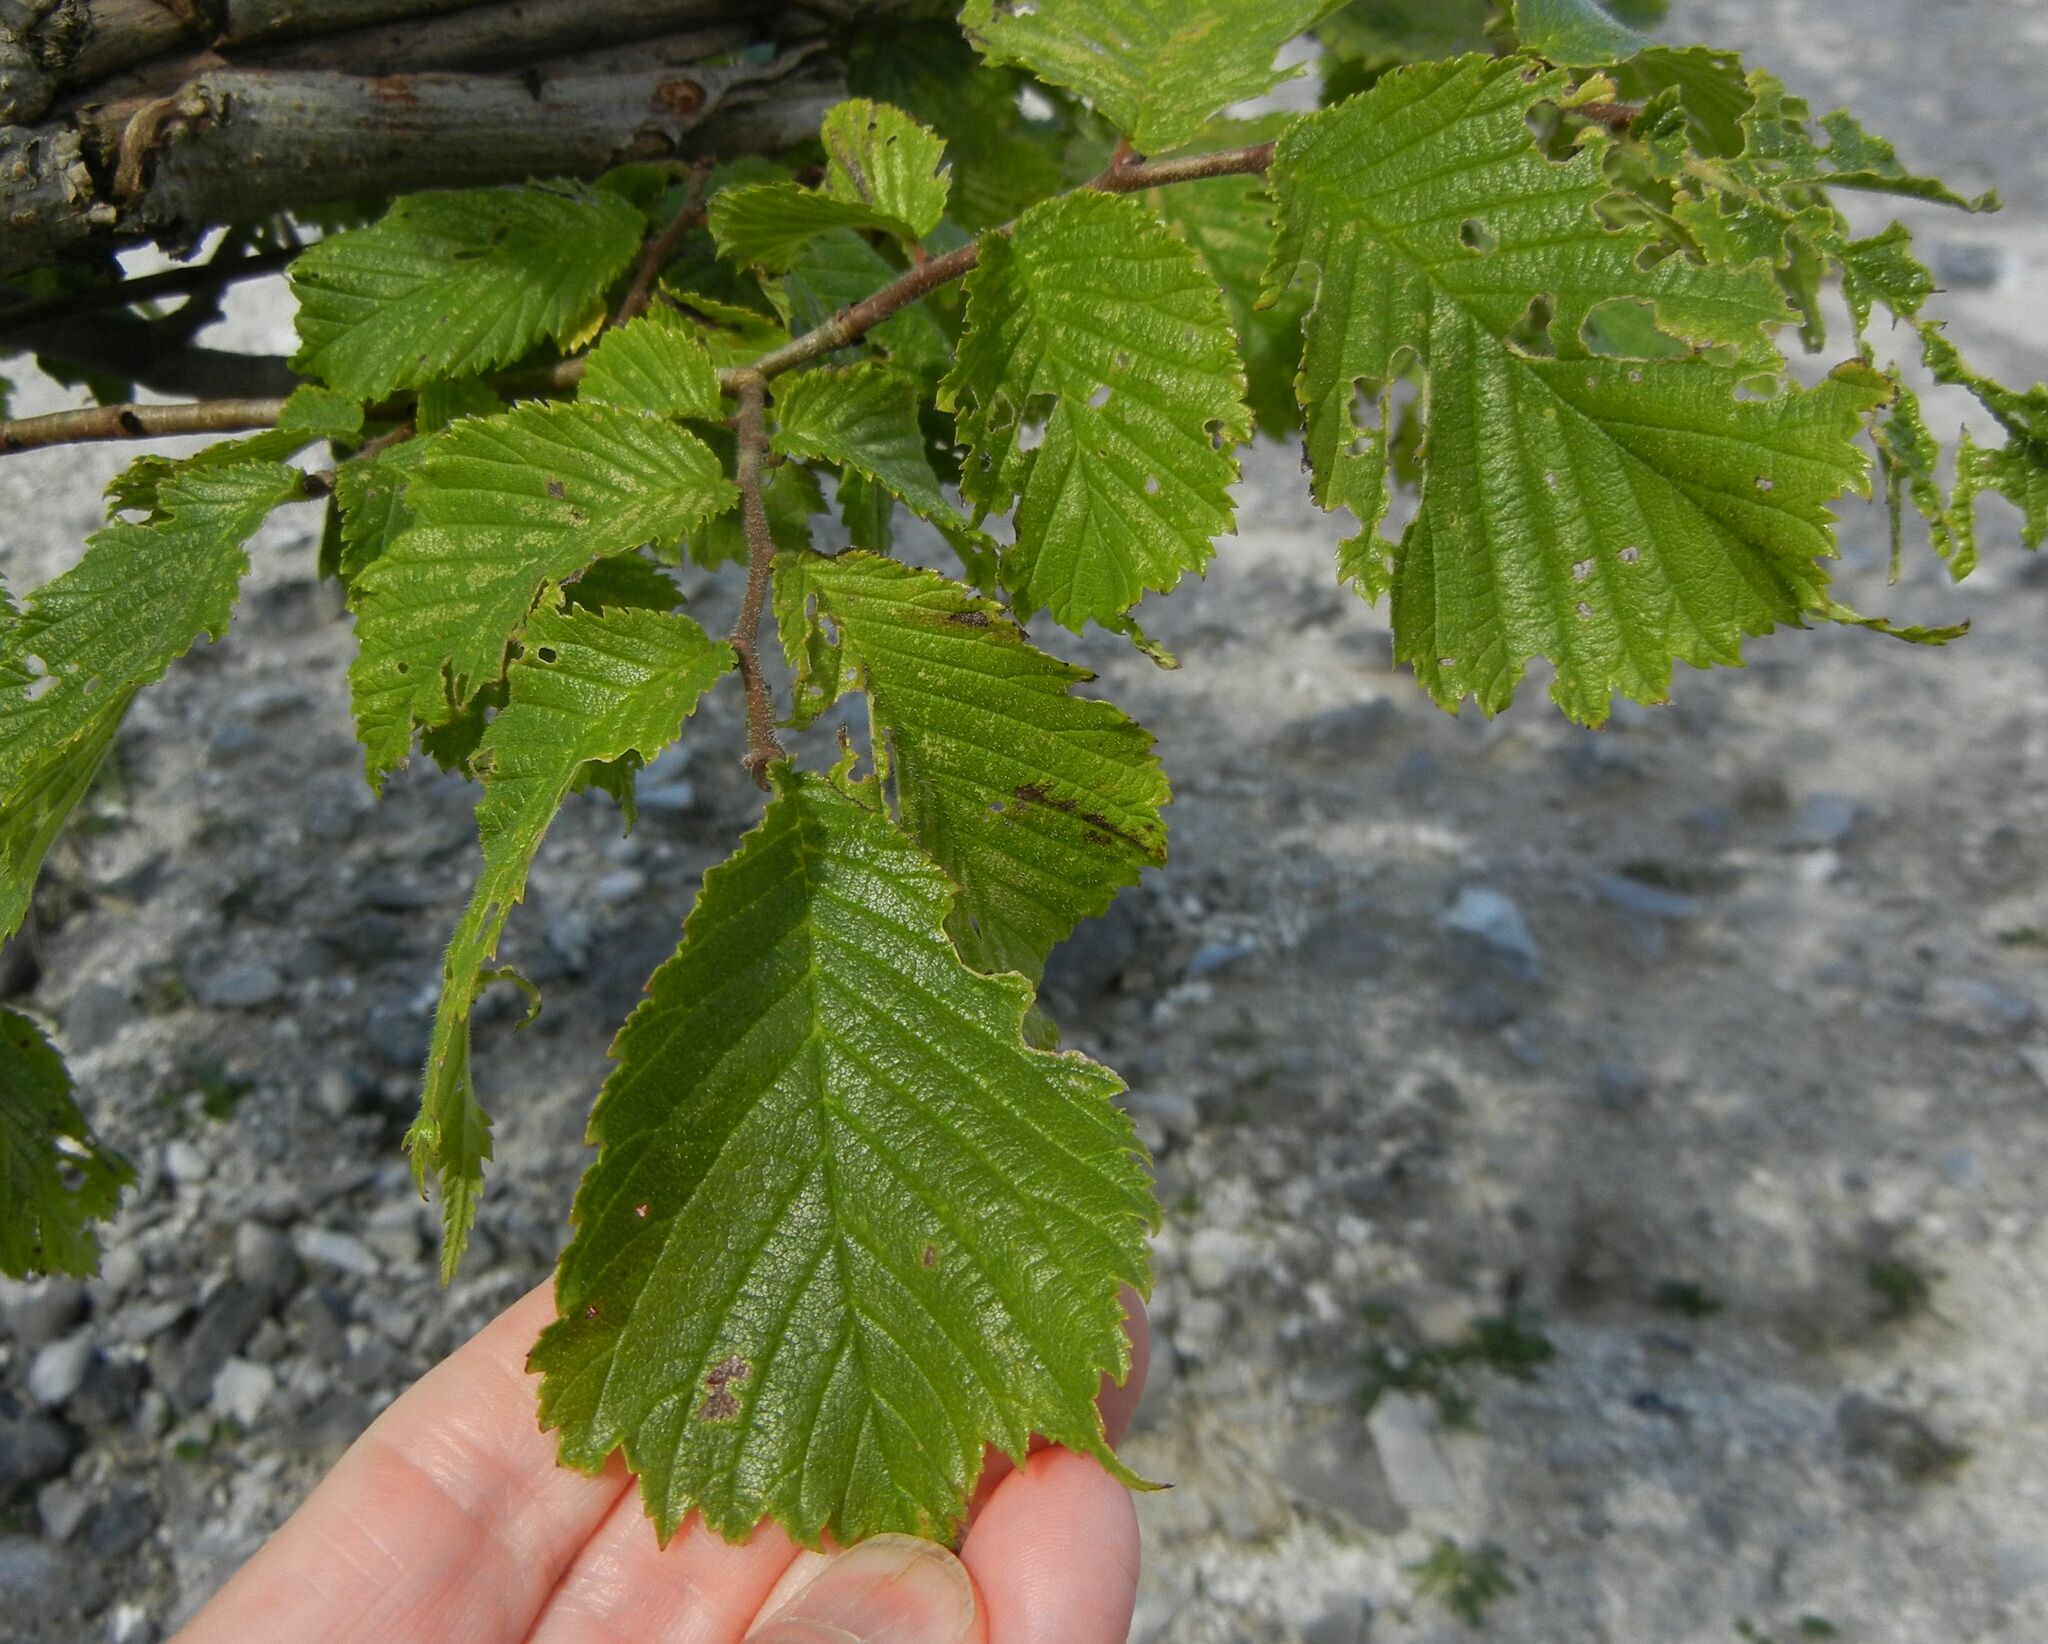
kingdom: Plantae
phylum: Tracheophyta
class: Magnoliopsida
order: Rosales
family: Ulmaceae
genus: Ulmus
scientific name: Ulmus glabra
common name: Wych elm
